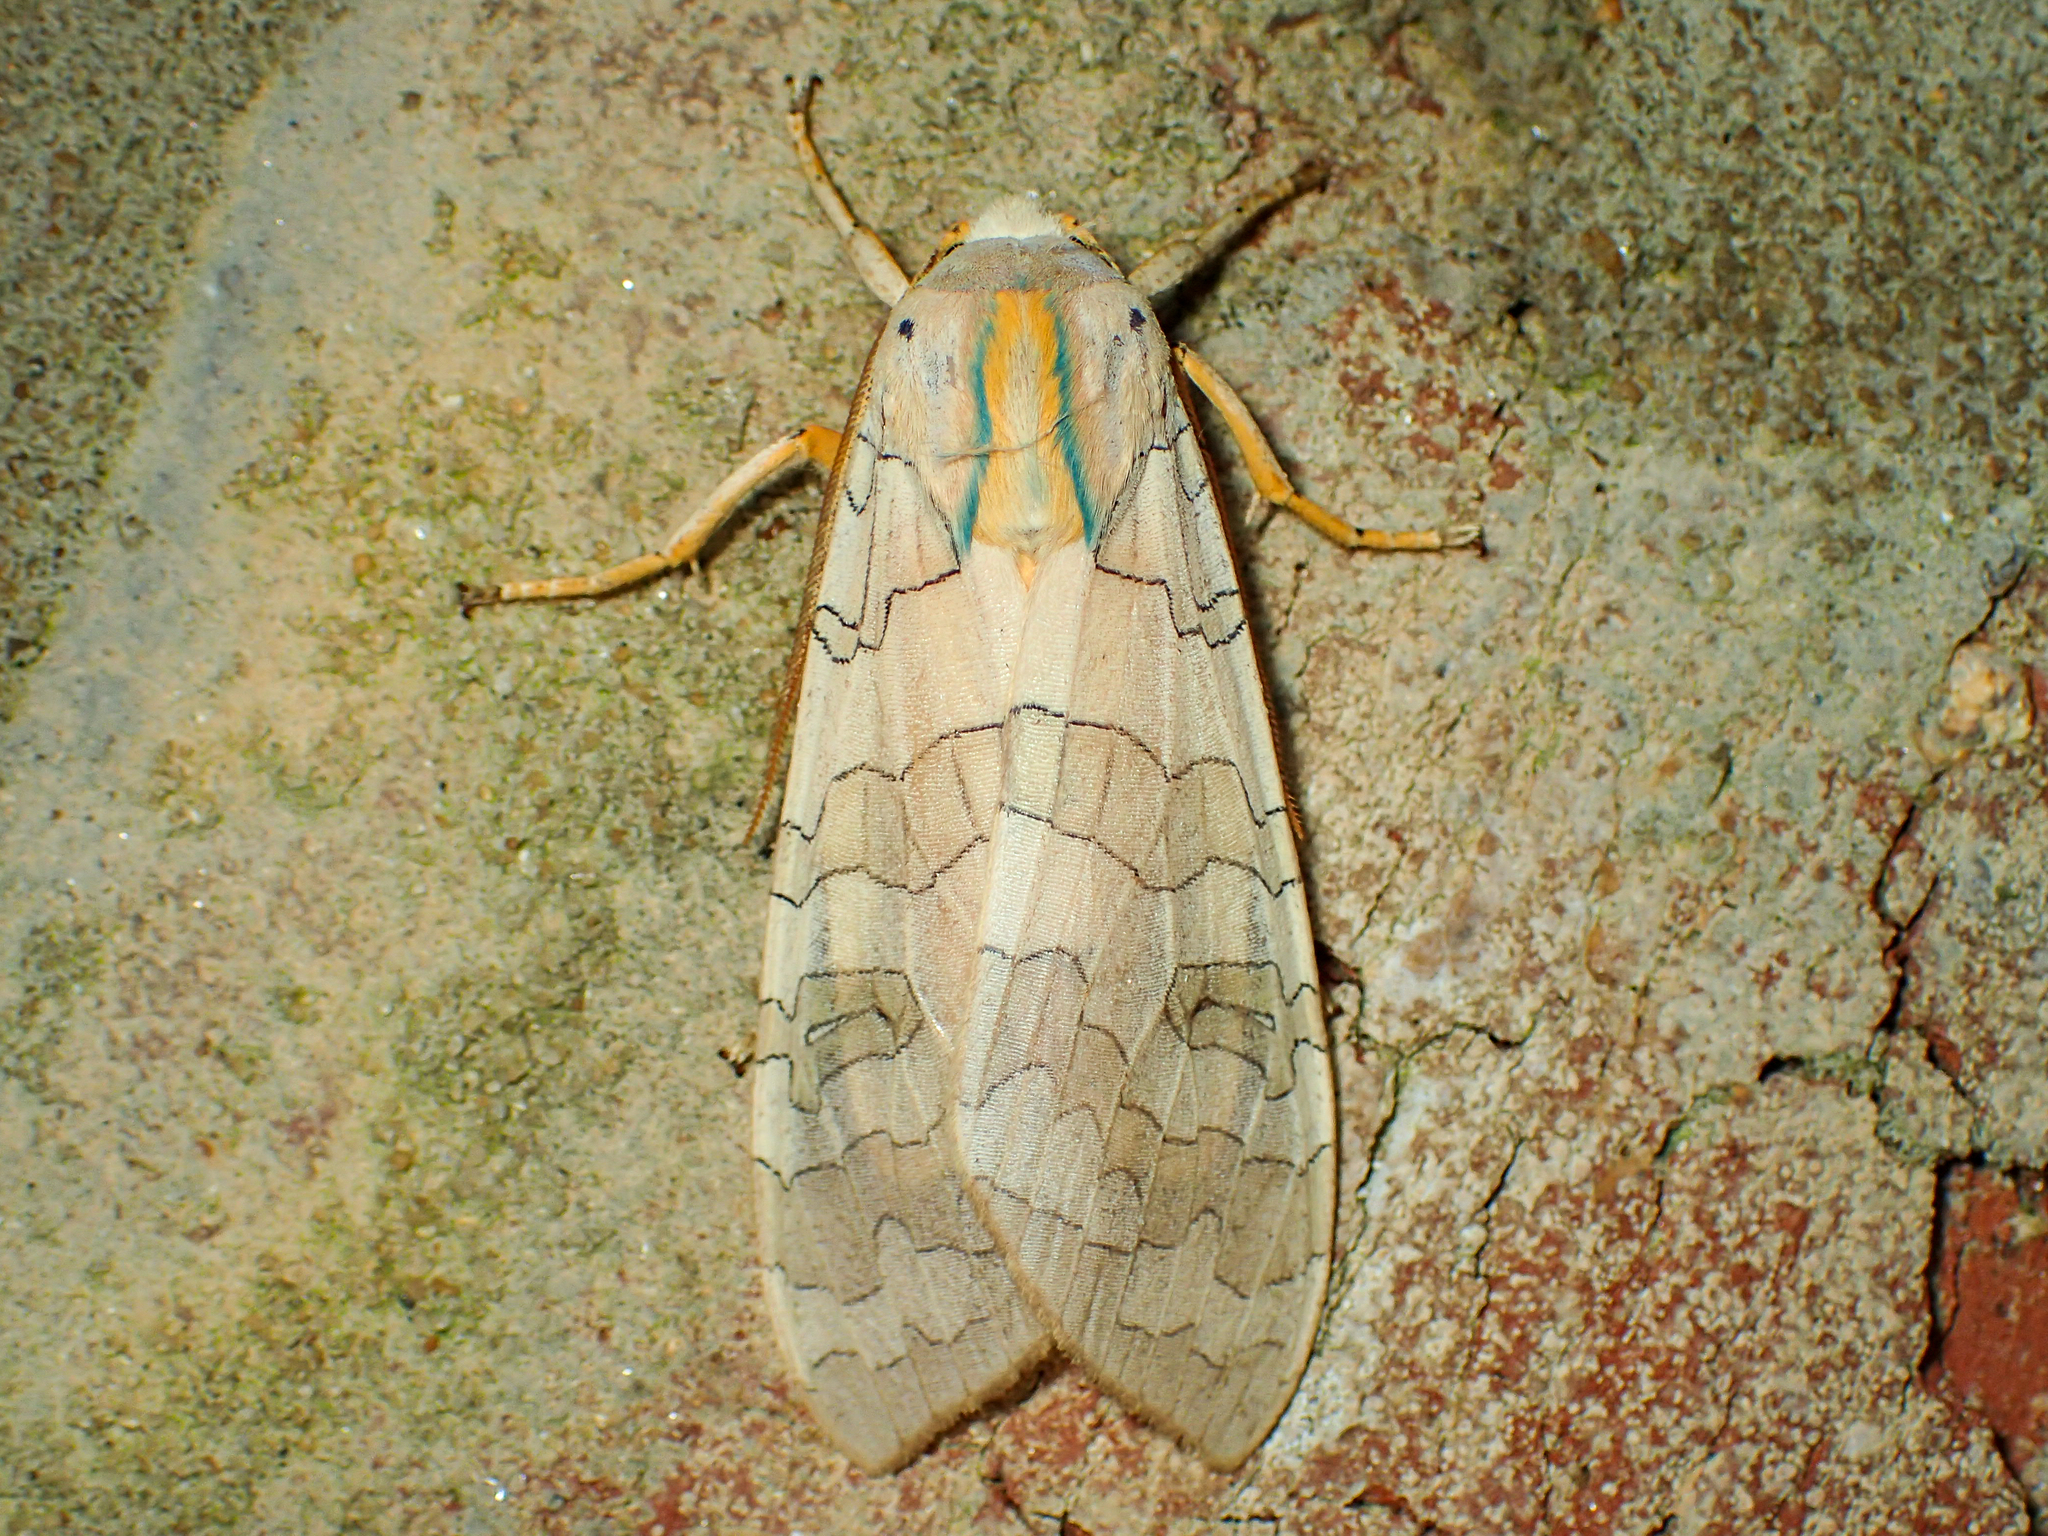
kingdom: Animalia
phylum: Arthropoda
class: Insecta
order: Lepidoptera
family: Erebidae
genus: Halysidota
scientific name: Halysidota
